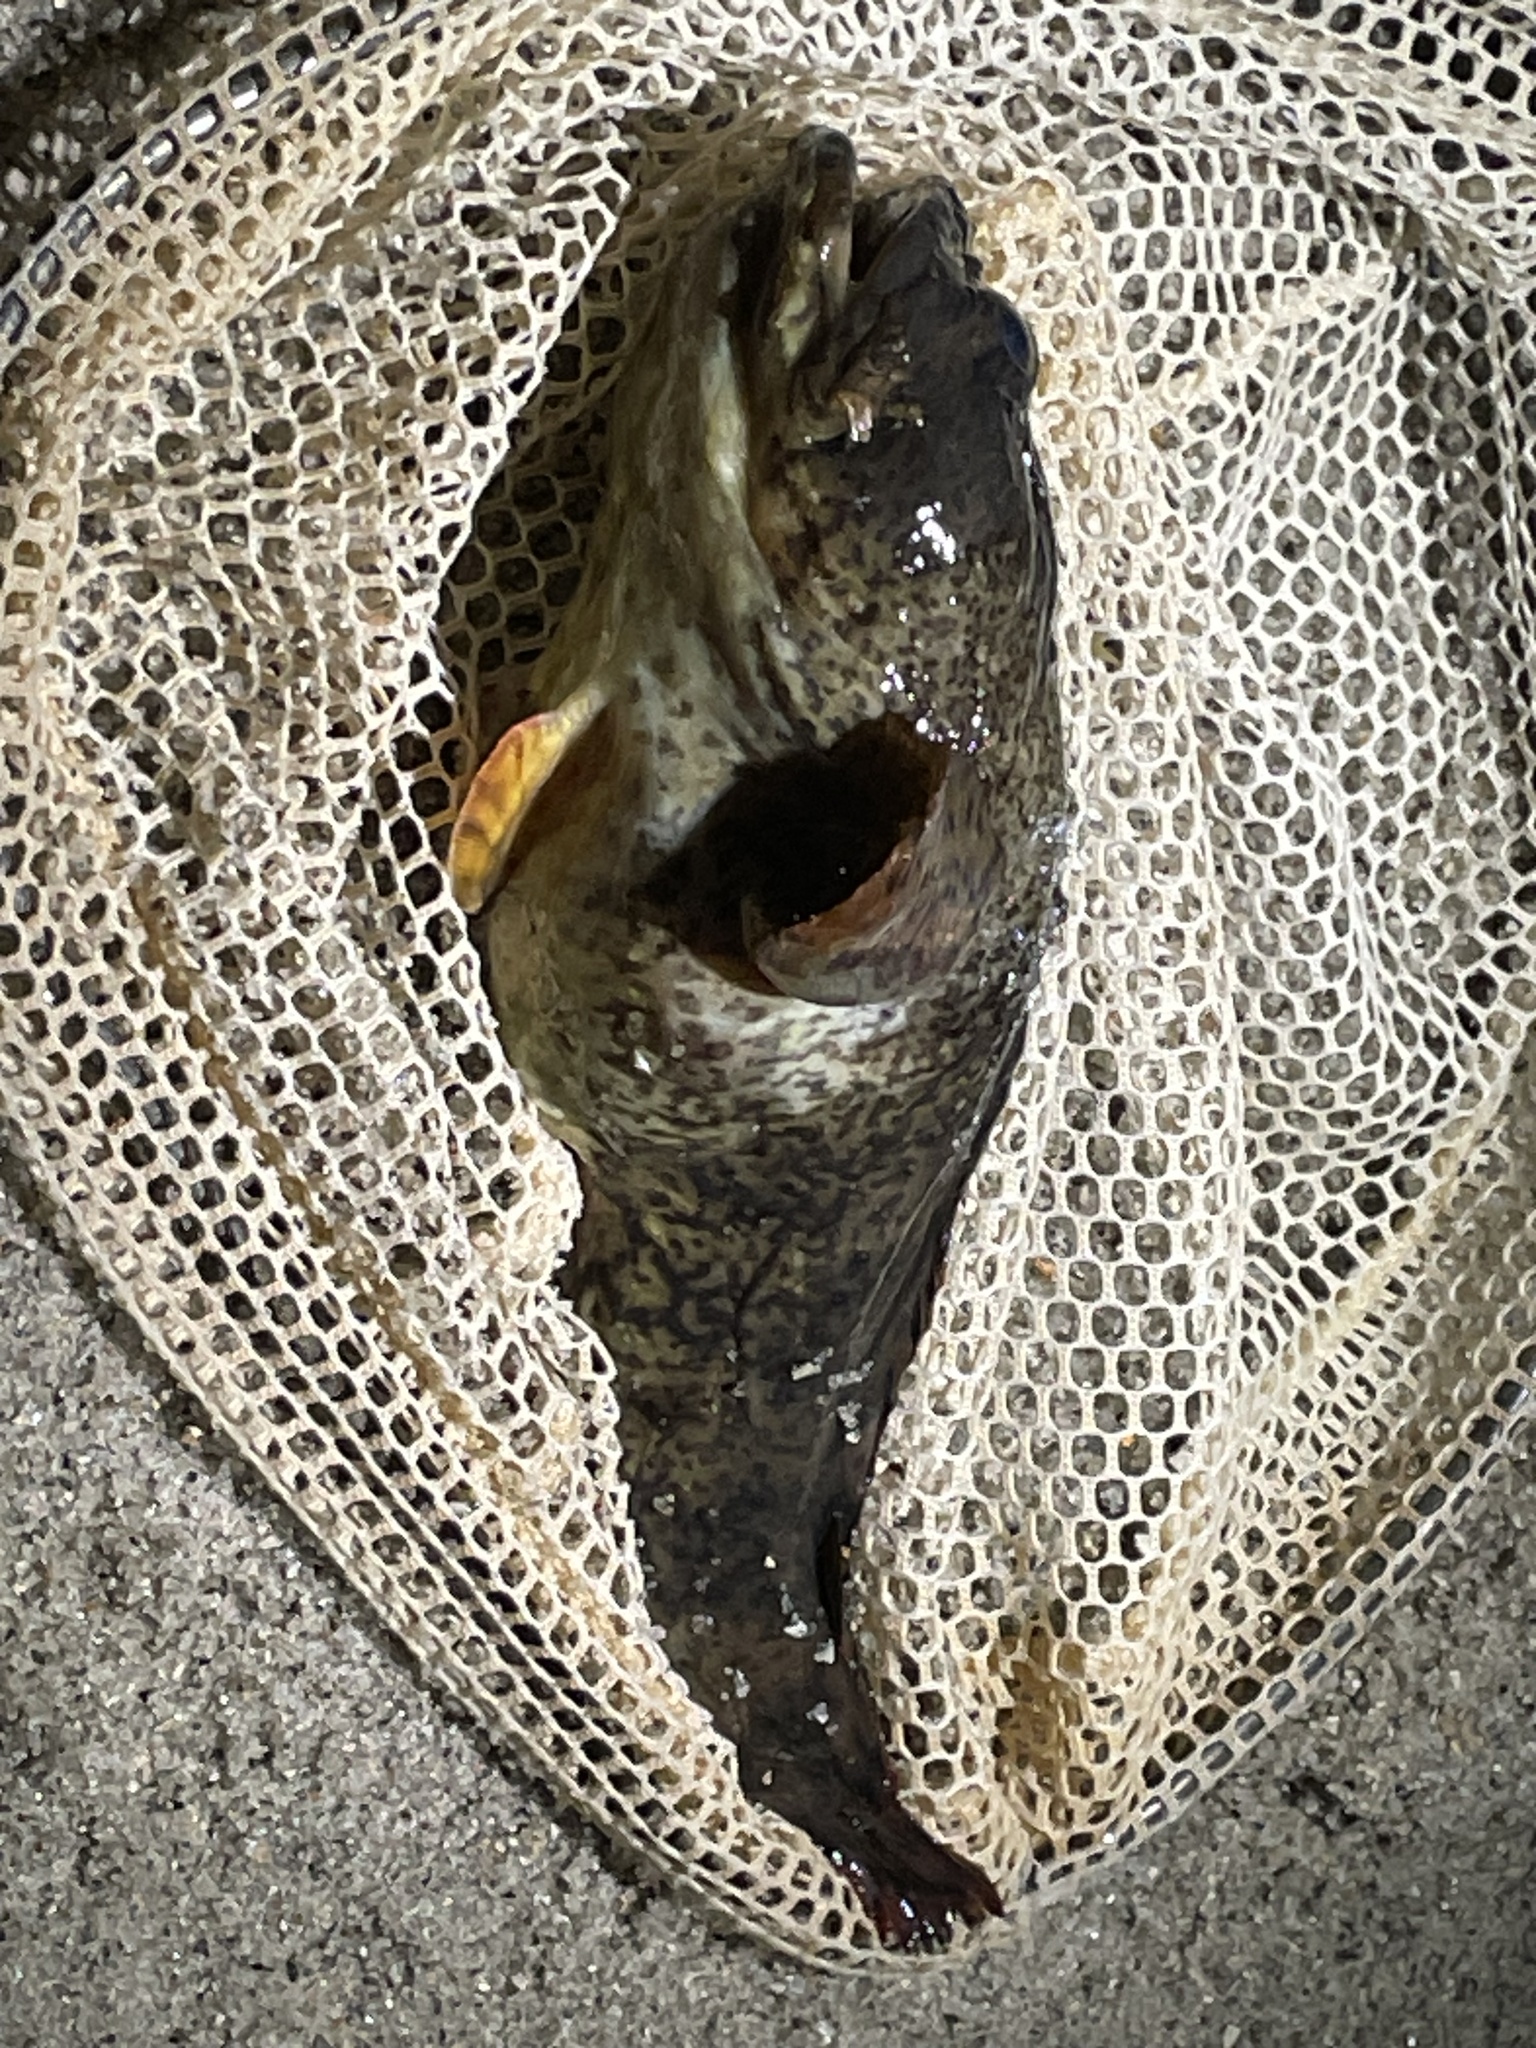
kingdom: Animalia
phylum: Chordata
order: Batrachoidiformes
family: Batrachoididae
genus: Opsanus
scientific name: Opsanus tau
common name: Oyster toadfish
